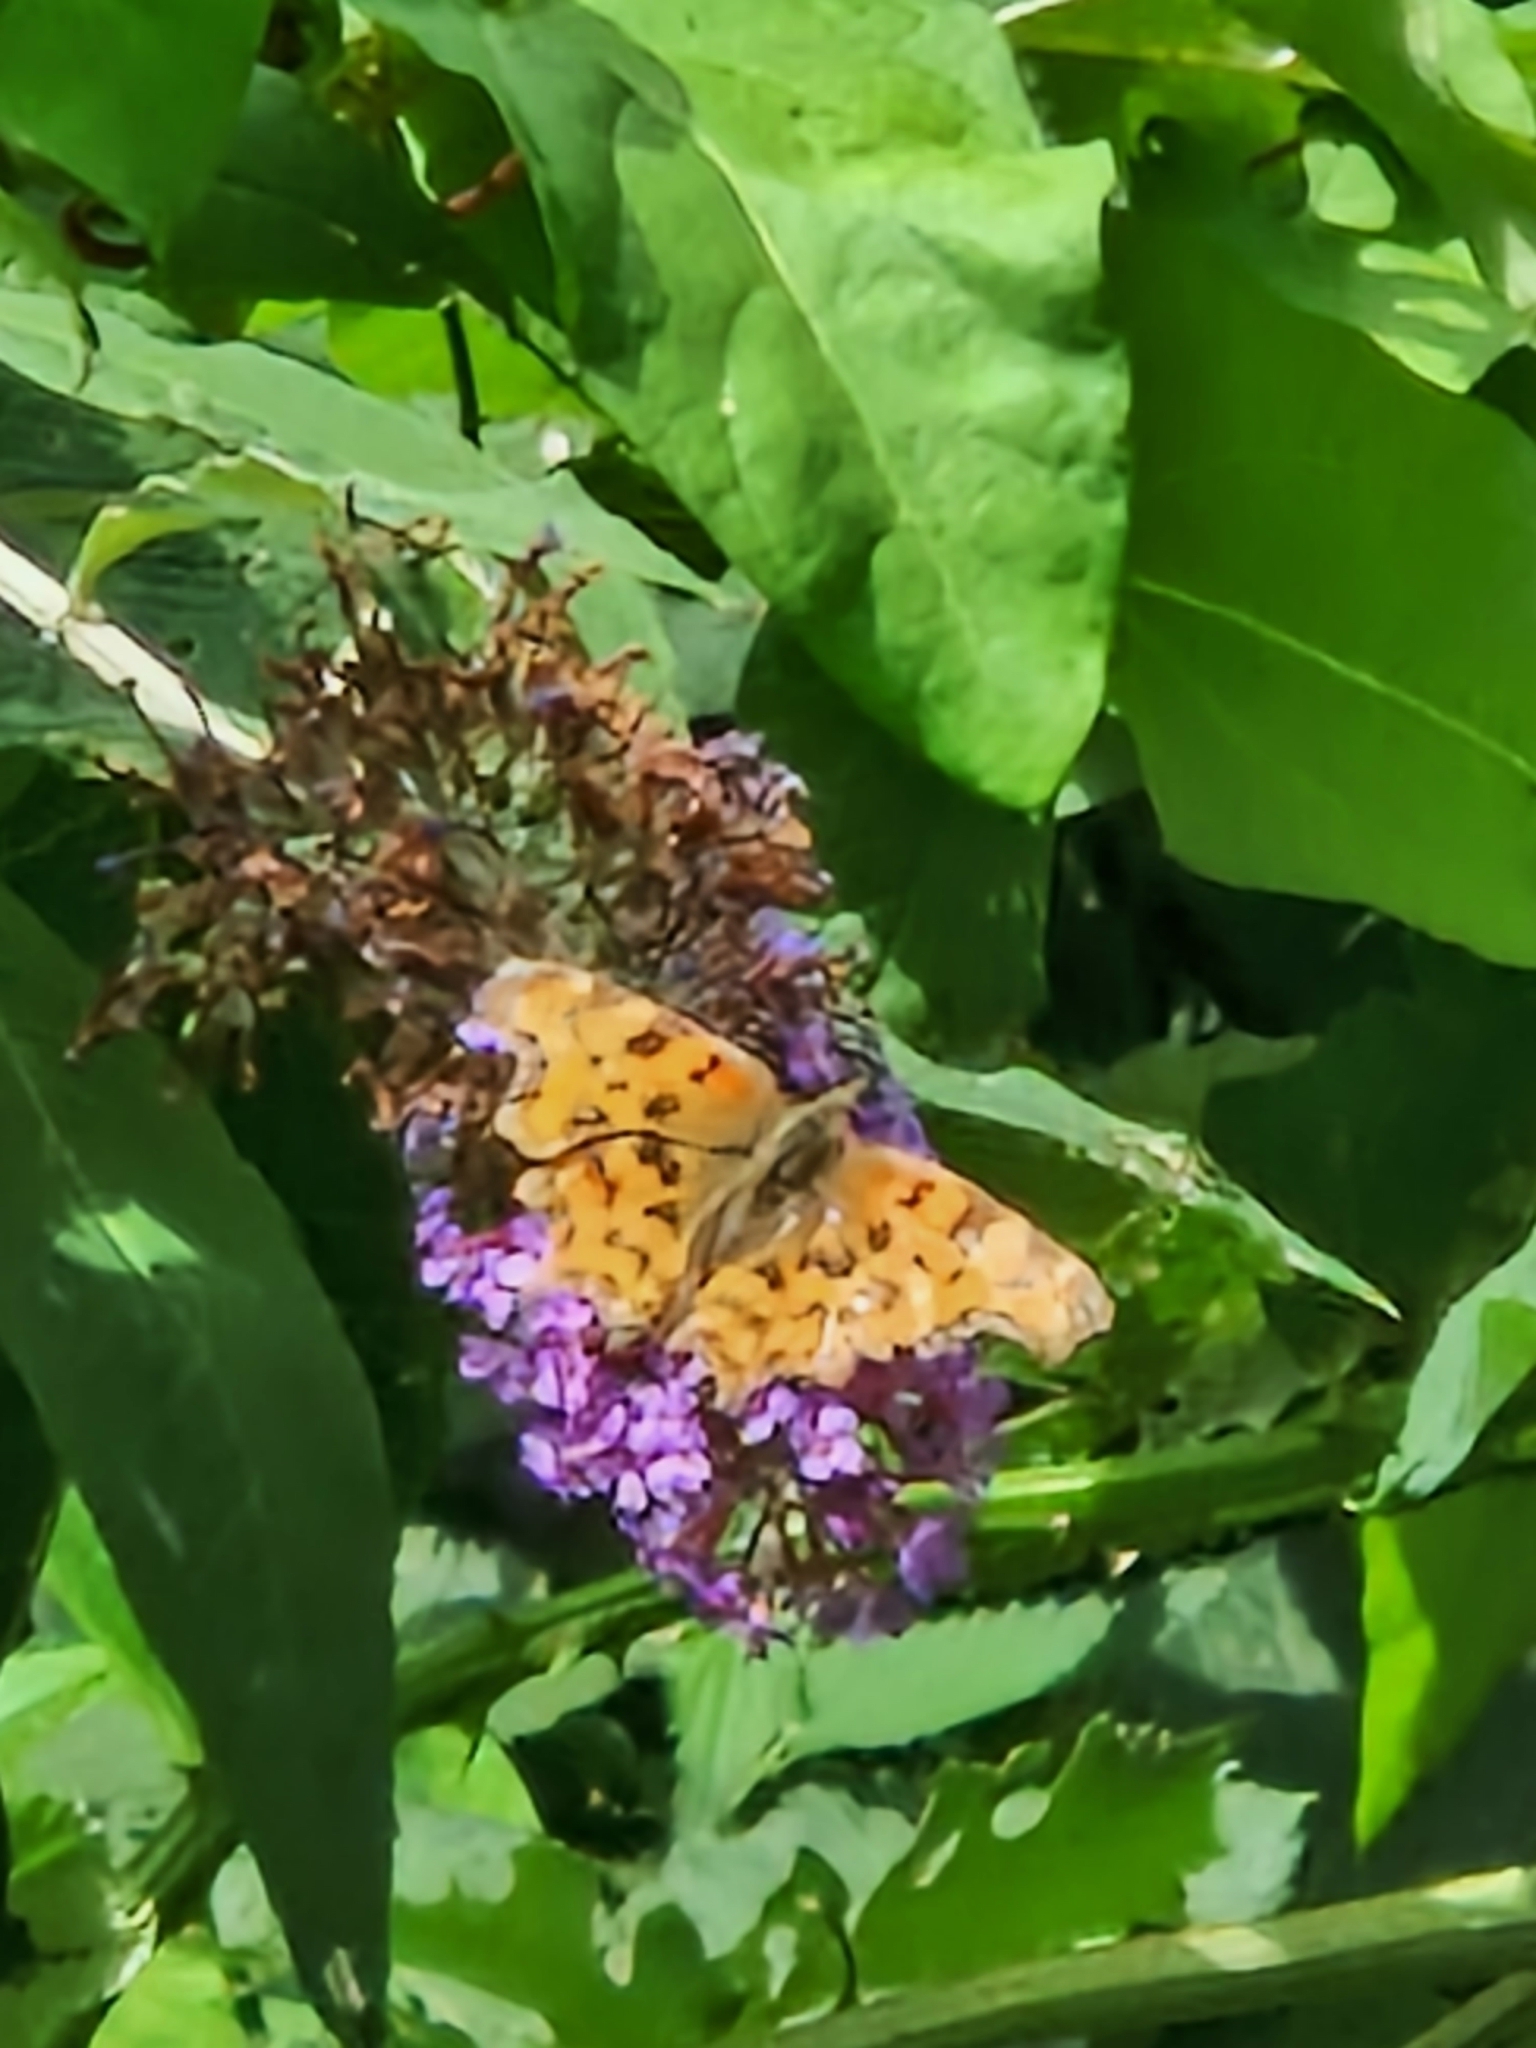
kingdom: Animalia
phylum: Arthropoda
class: Insecta
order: Lepidoptera
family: Nymphalidae
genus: Polygonia
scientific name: Polygonia c-album
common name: Comma
